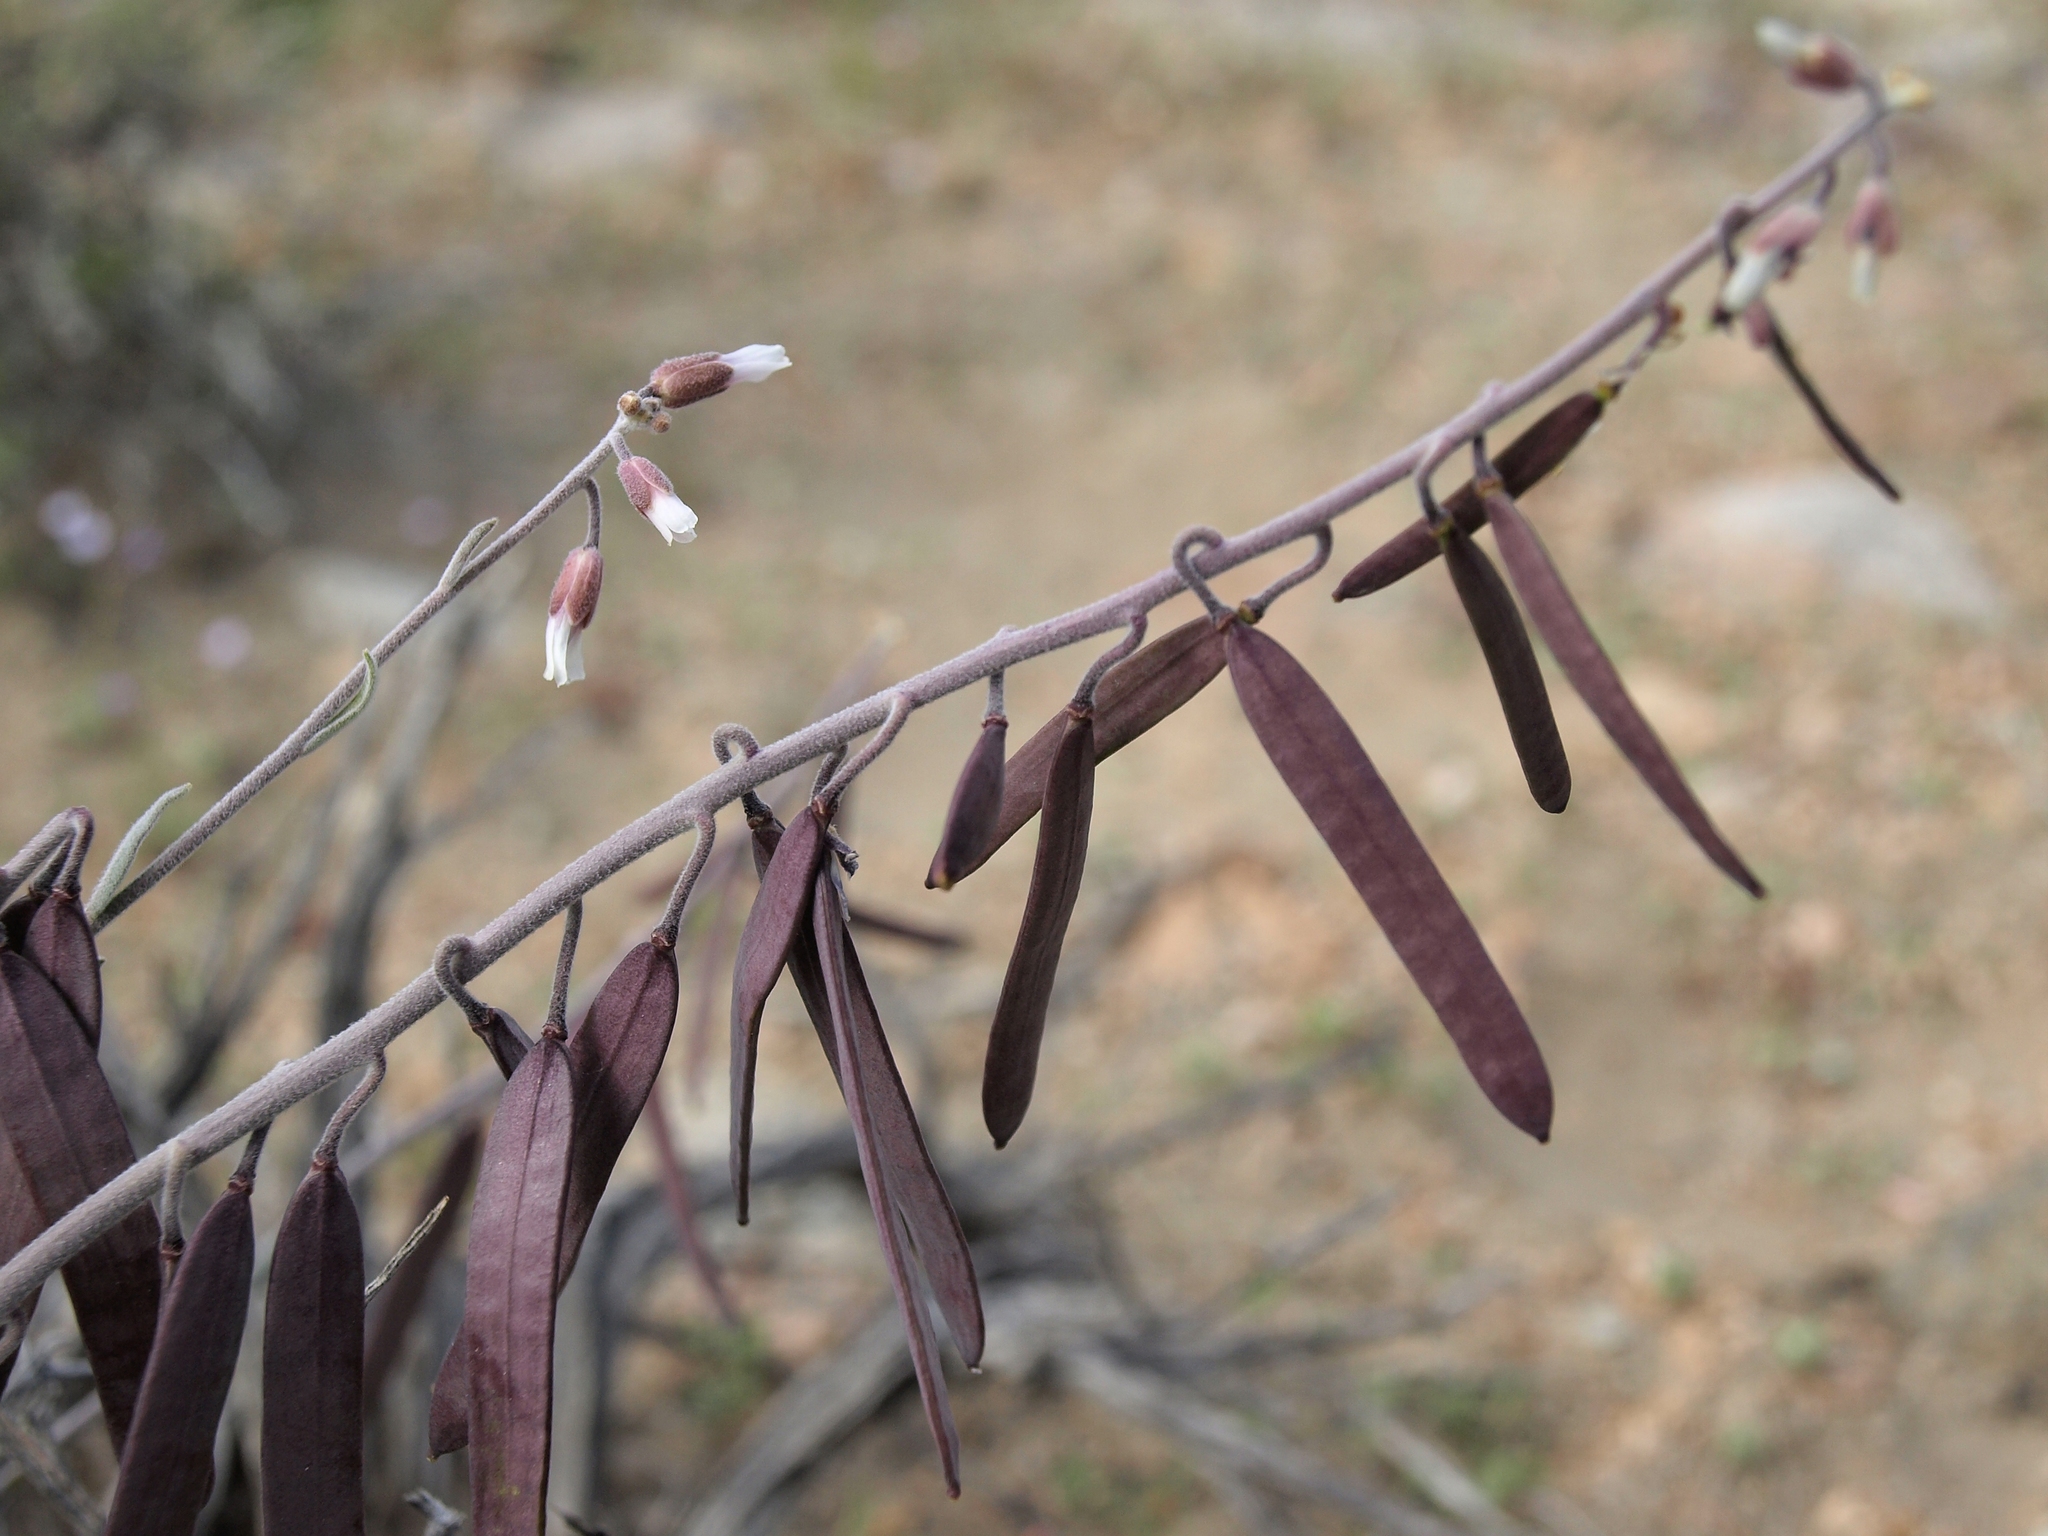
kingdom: Plantae
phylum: Tracheophyta
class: Magnoliopsida
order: Brassicales
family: Brassicaceae
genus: Boechera
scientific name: Boechera glaucovalvula
